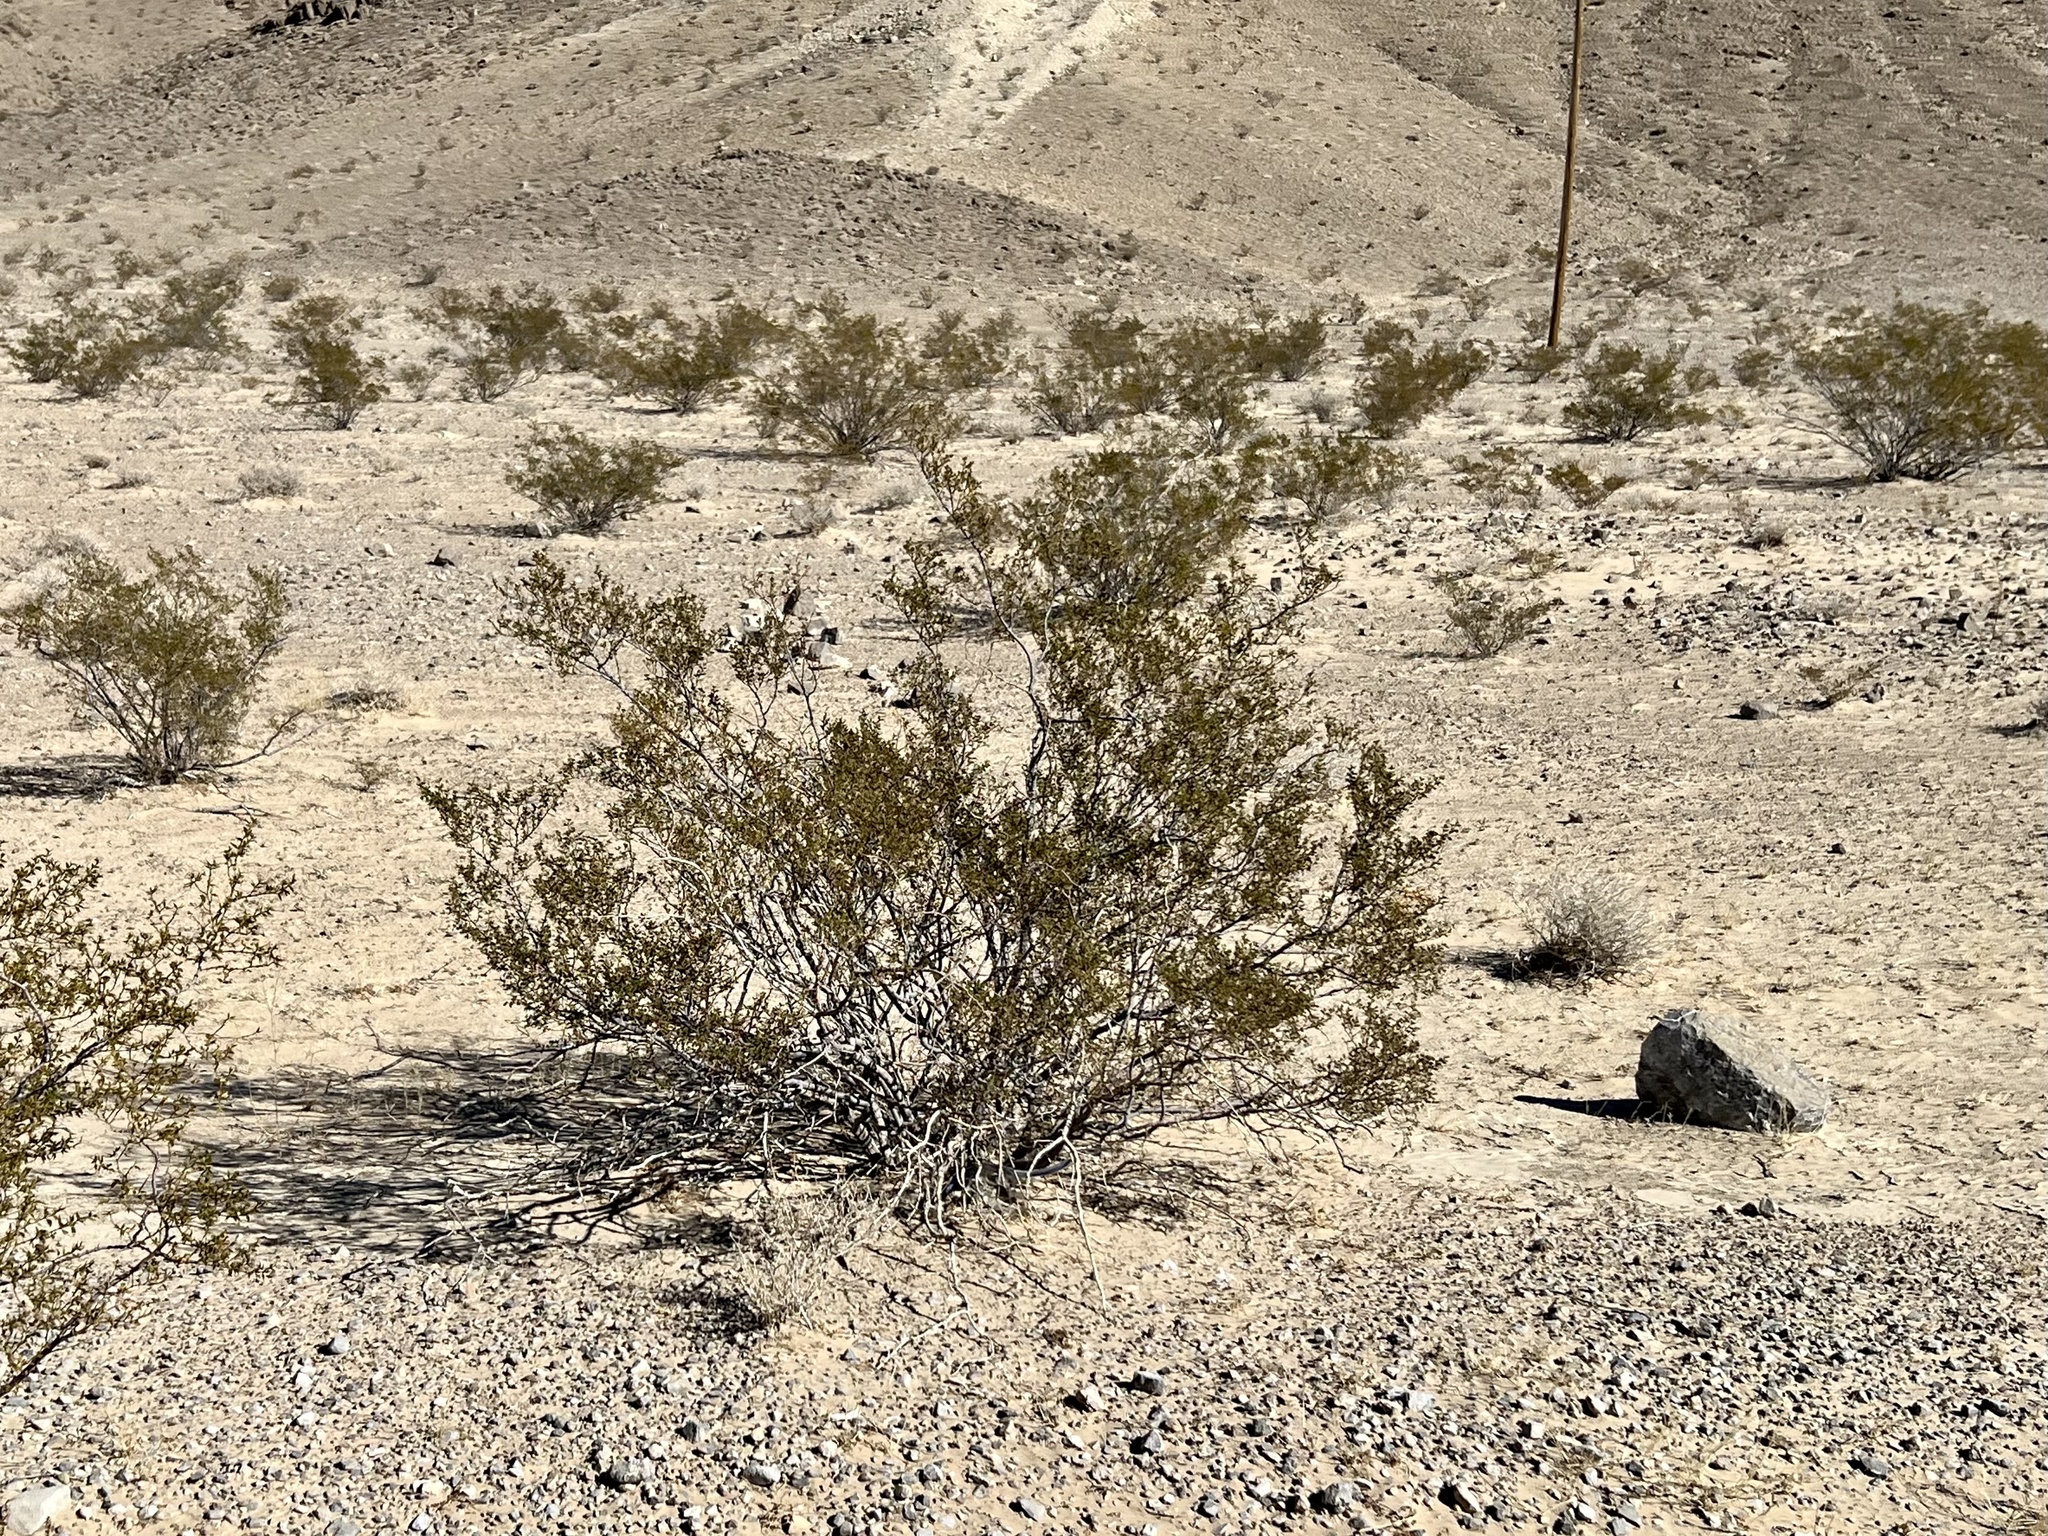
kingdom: Plantae
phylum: Tracheophyta
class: Magnoliopsida
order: Zygophyllales
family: Zygophyllaceae
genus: Larrea
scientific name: Larrea tridentata
